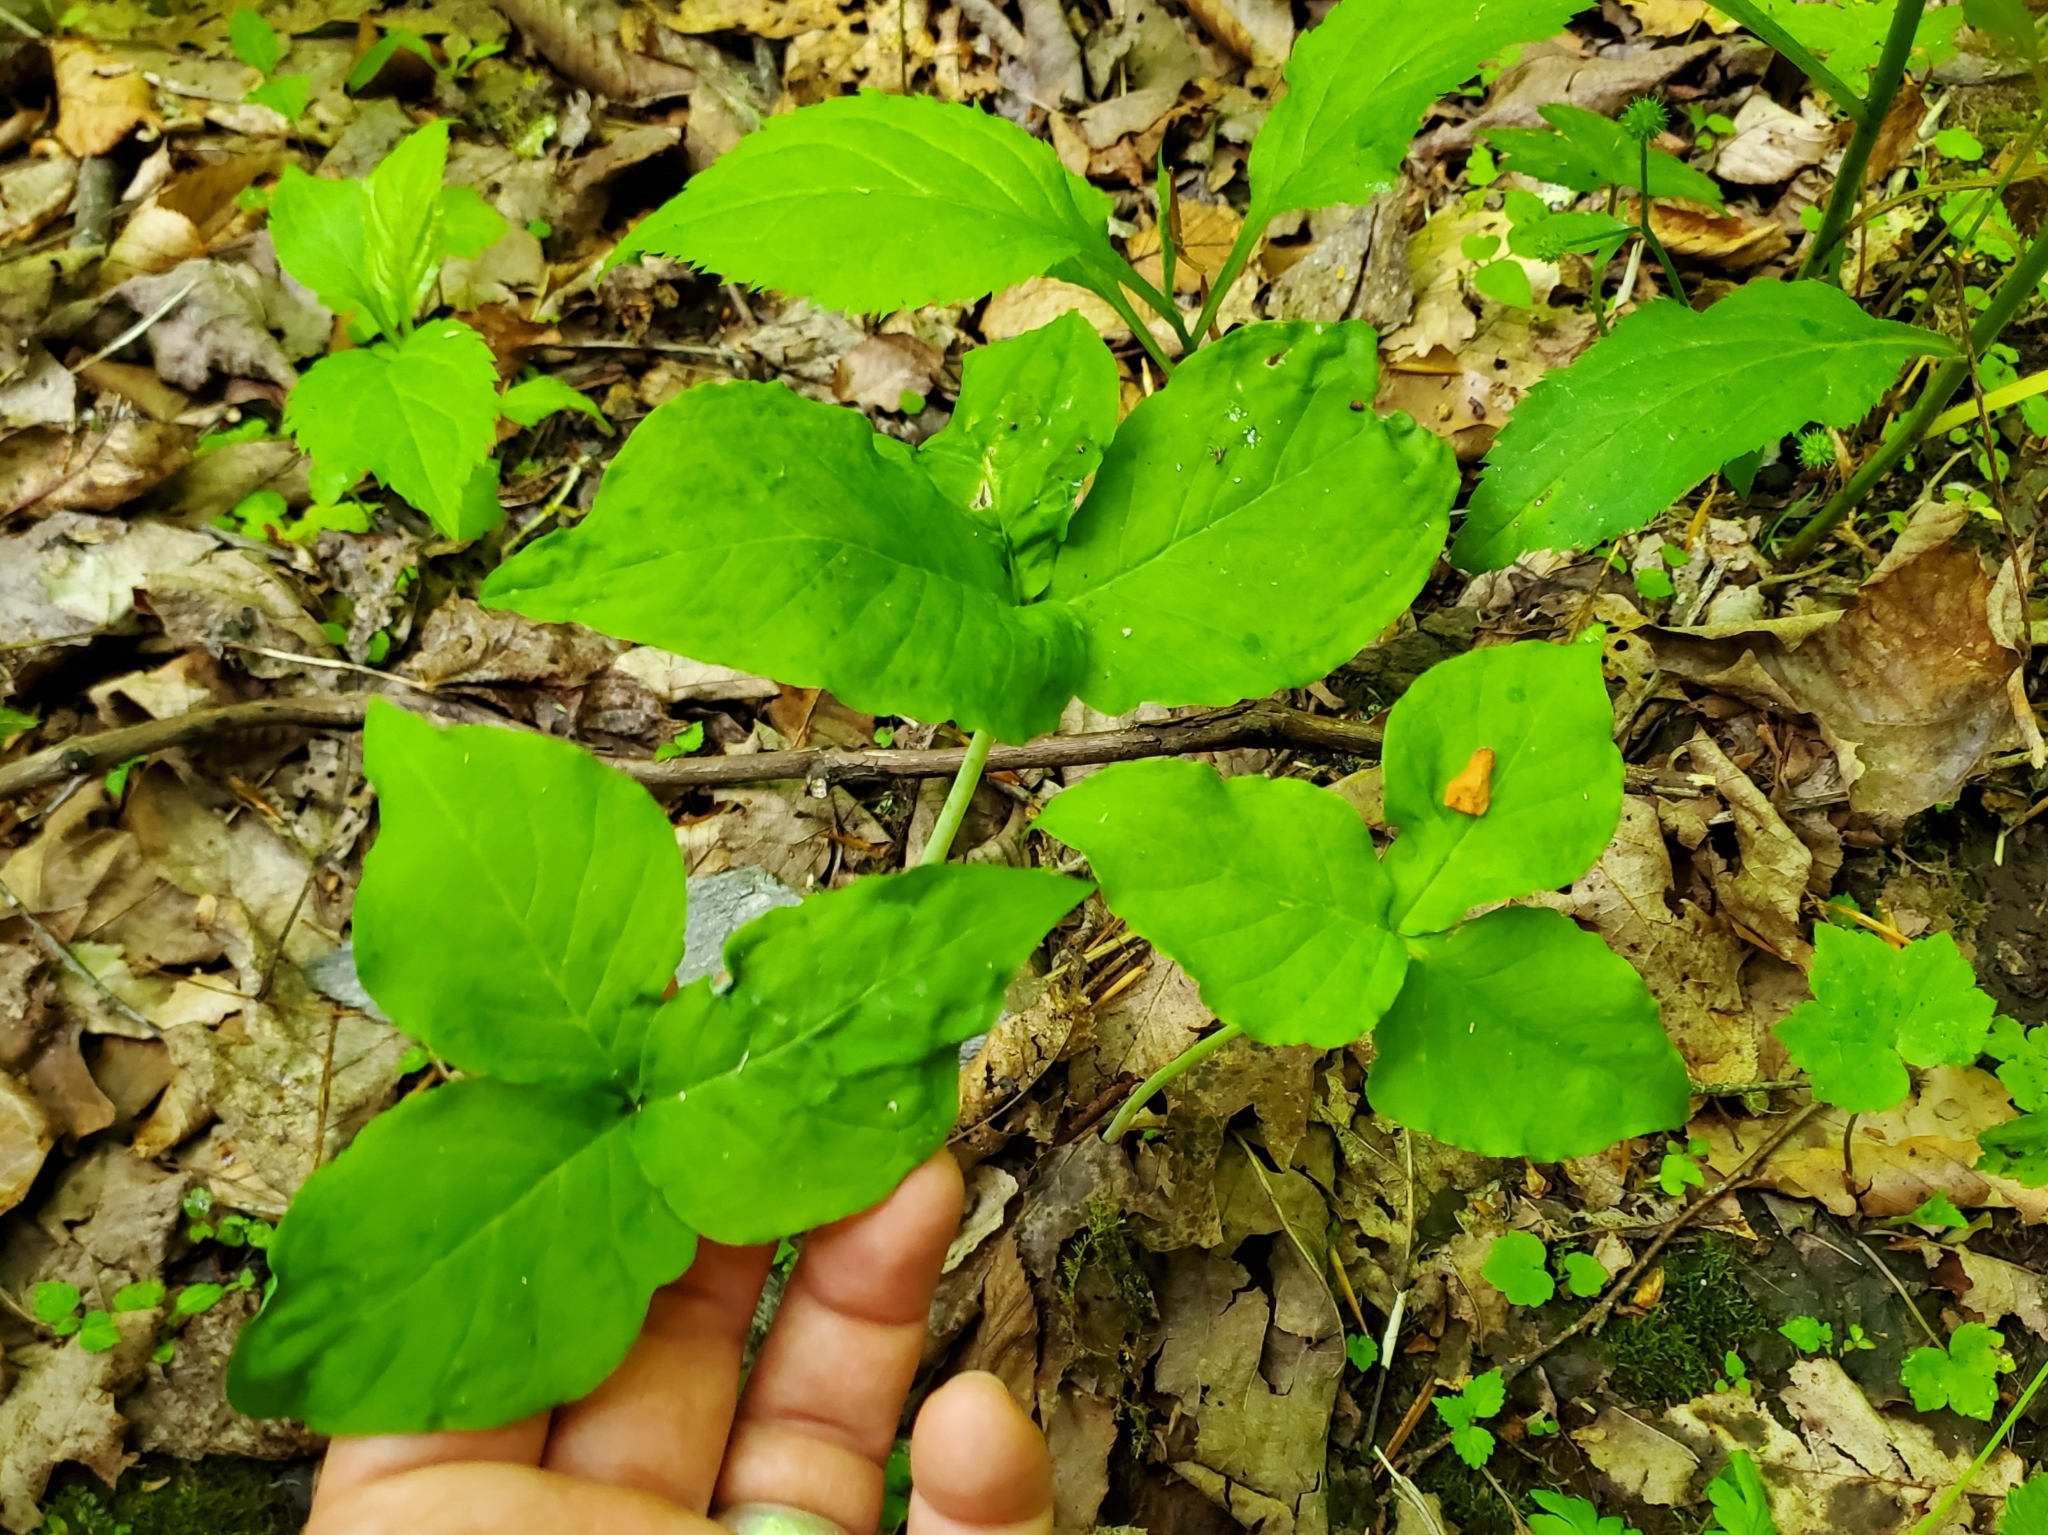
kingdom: Plantae
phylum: Tracheophyta
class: Liliopsida
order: Alismatales
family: Araceae
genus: Arisaema
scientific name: Arisaema triphyllum
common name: Jack-in-the-pulpit
